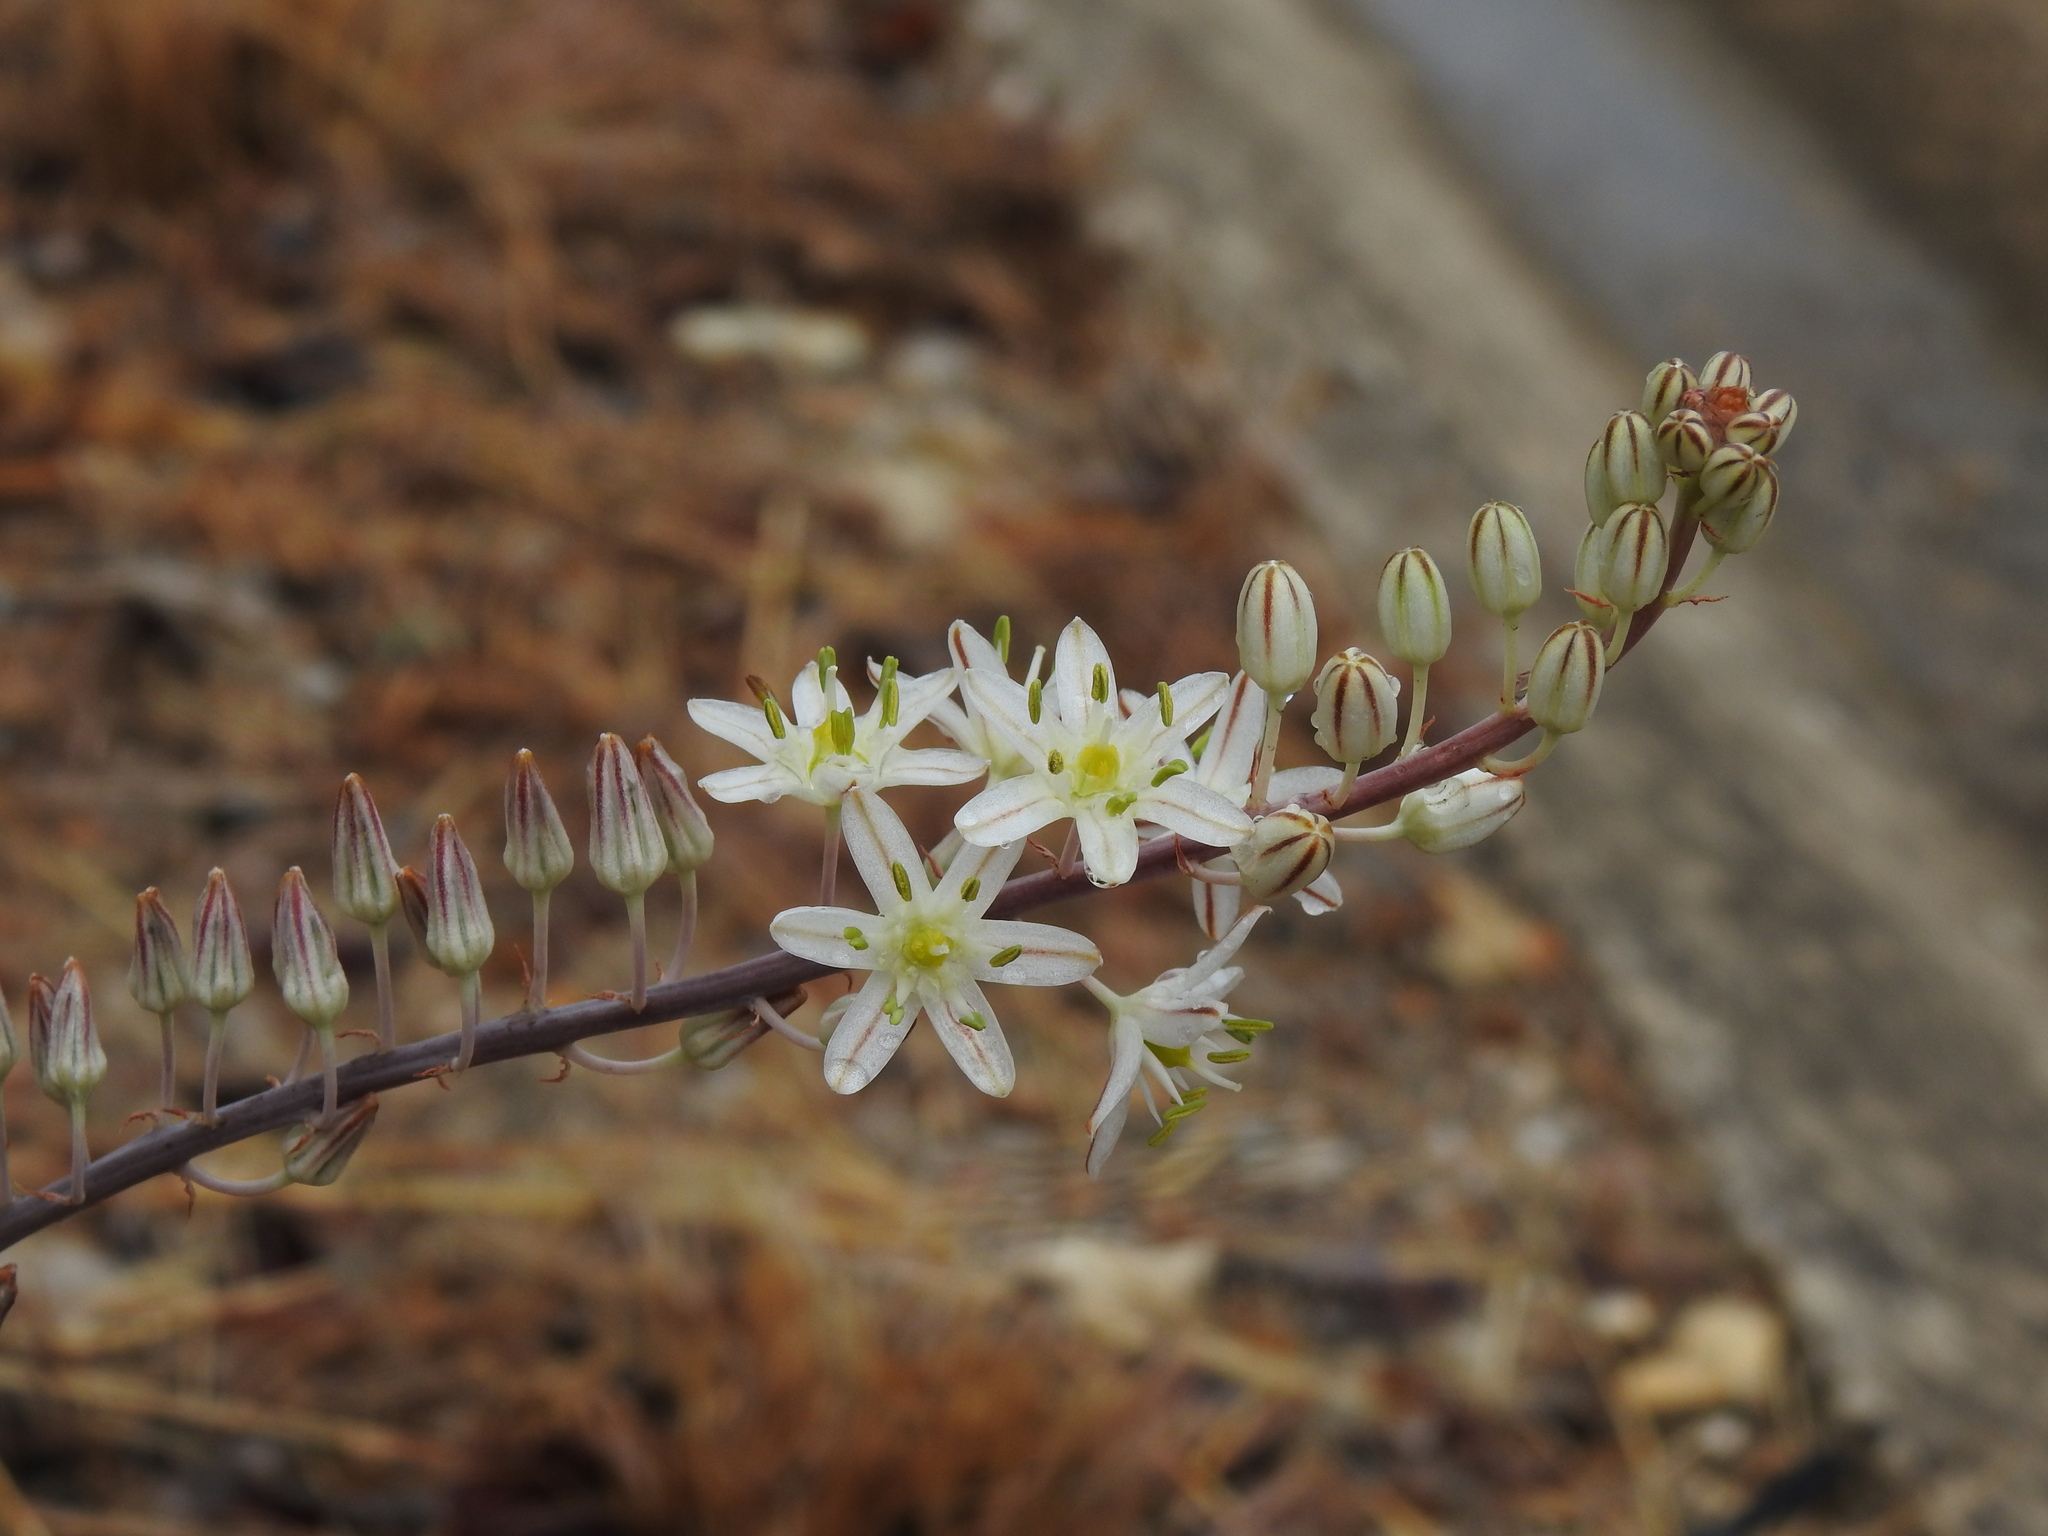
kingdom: Plantae
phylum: Tracheophyta
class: Liliopsida
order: Asparagales
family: Asparagaceae
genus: Drimia
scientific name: Drimia maritima
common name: Maritime squill
